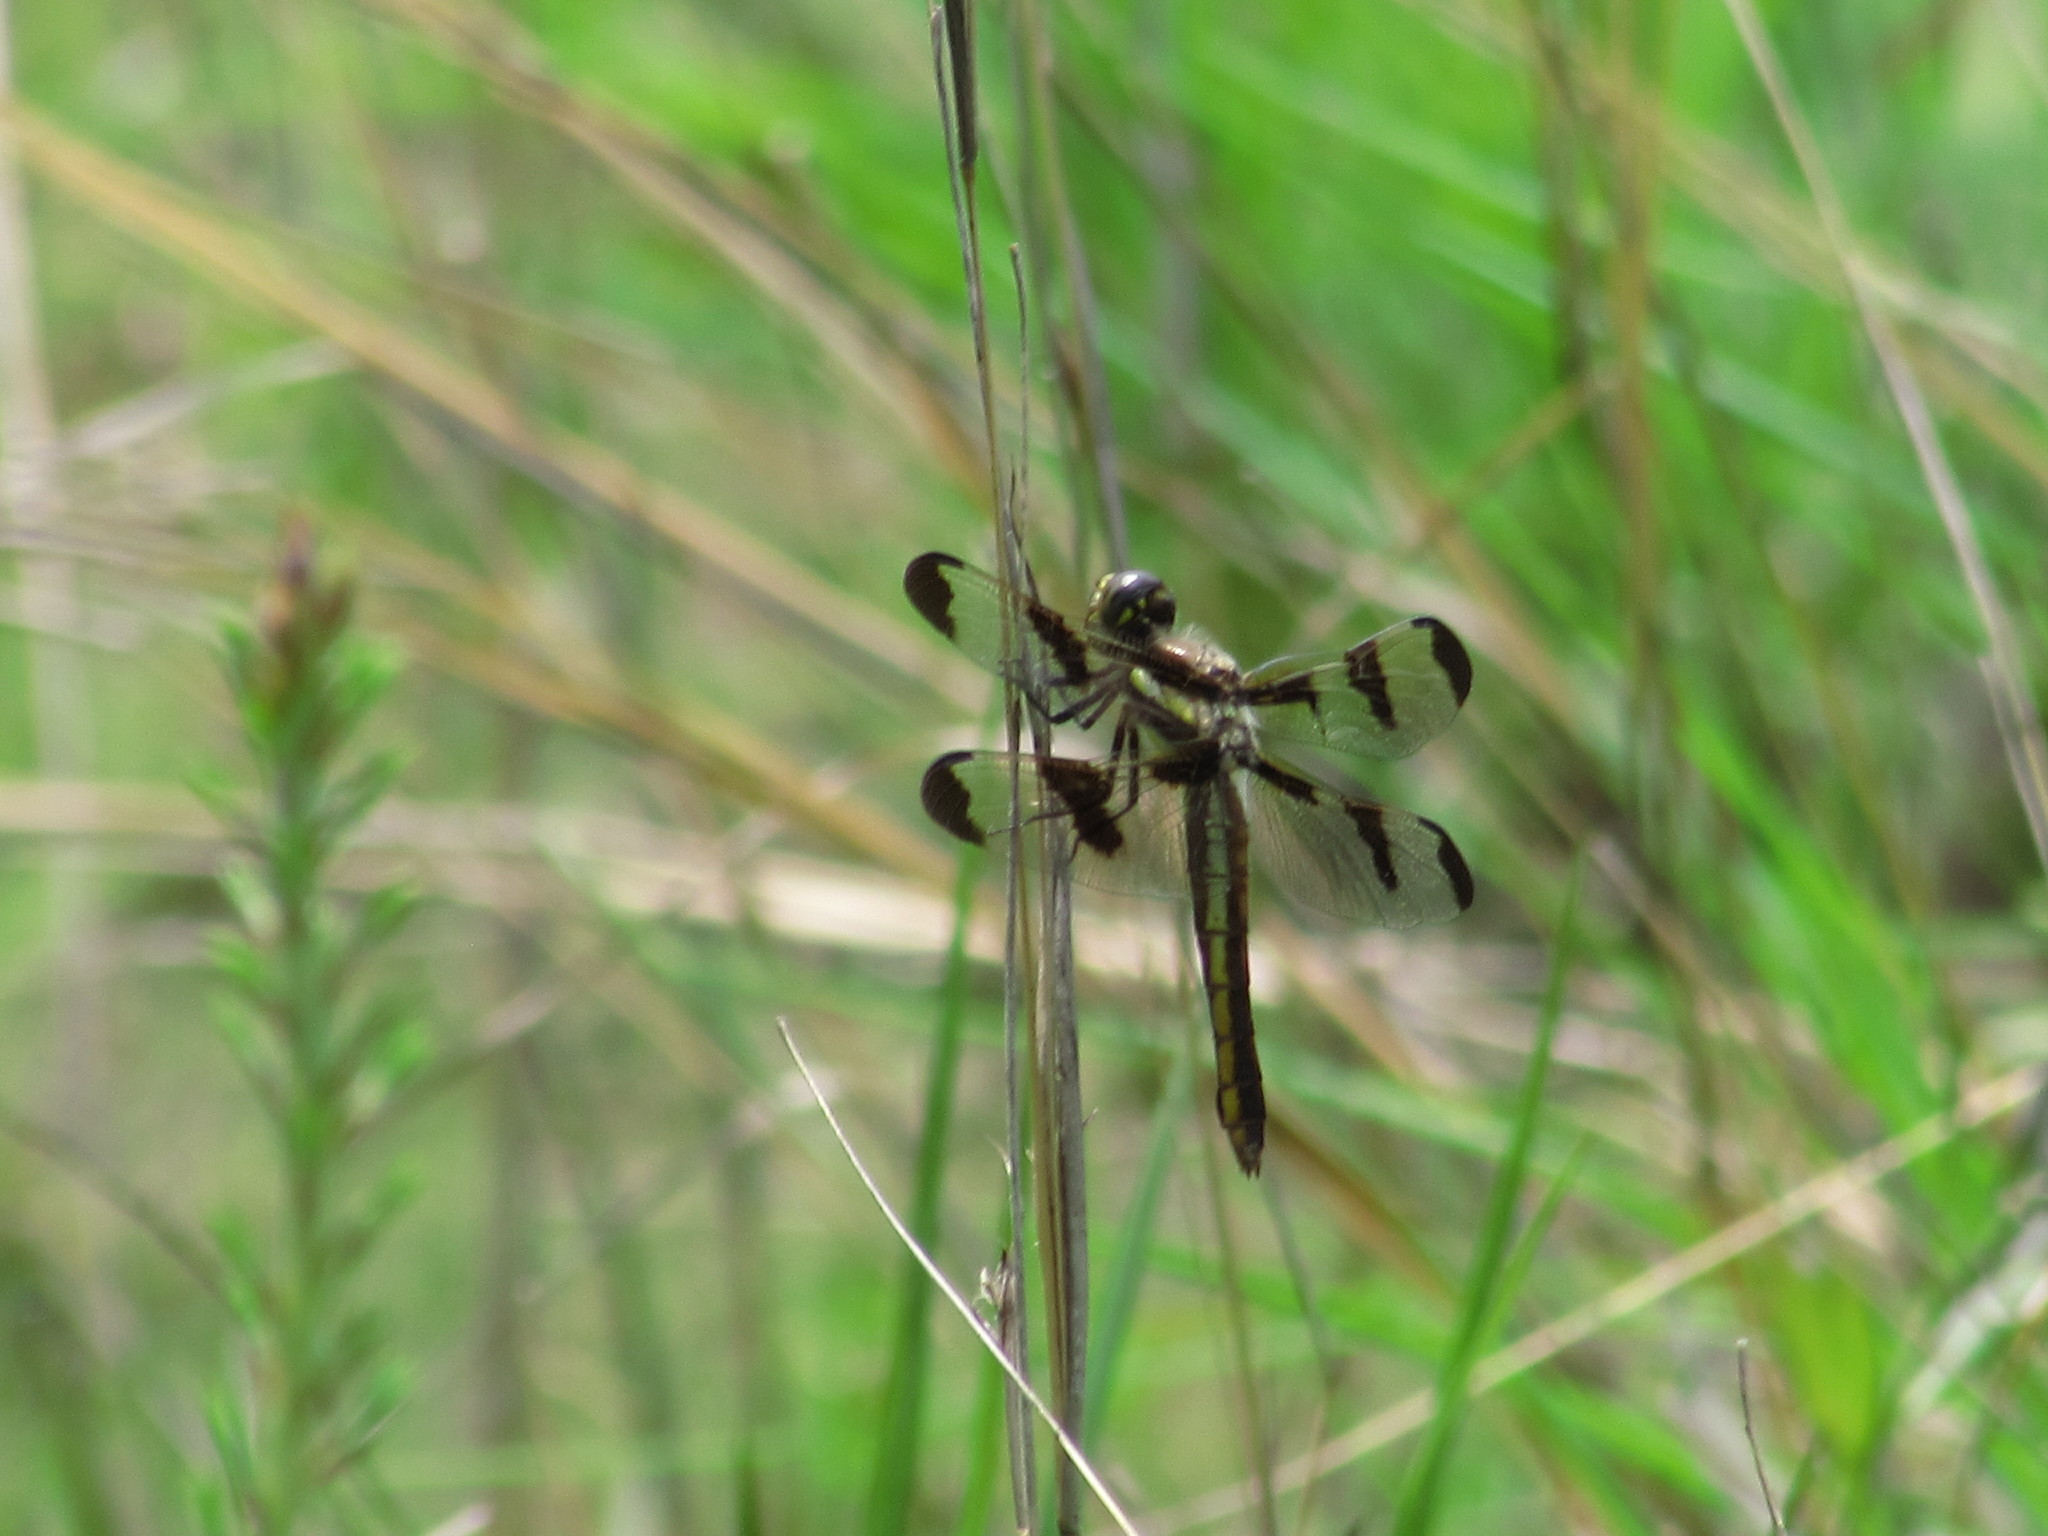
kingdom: Animalia
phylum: Arthropoda
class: Insecta
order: Odonata
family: Libellulidae
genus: Libellula
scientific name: Libellula pulchella
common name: Twelve-spotted skimmer
